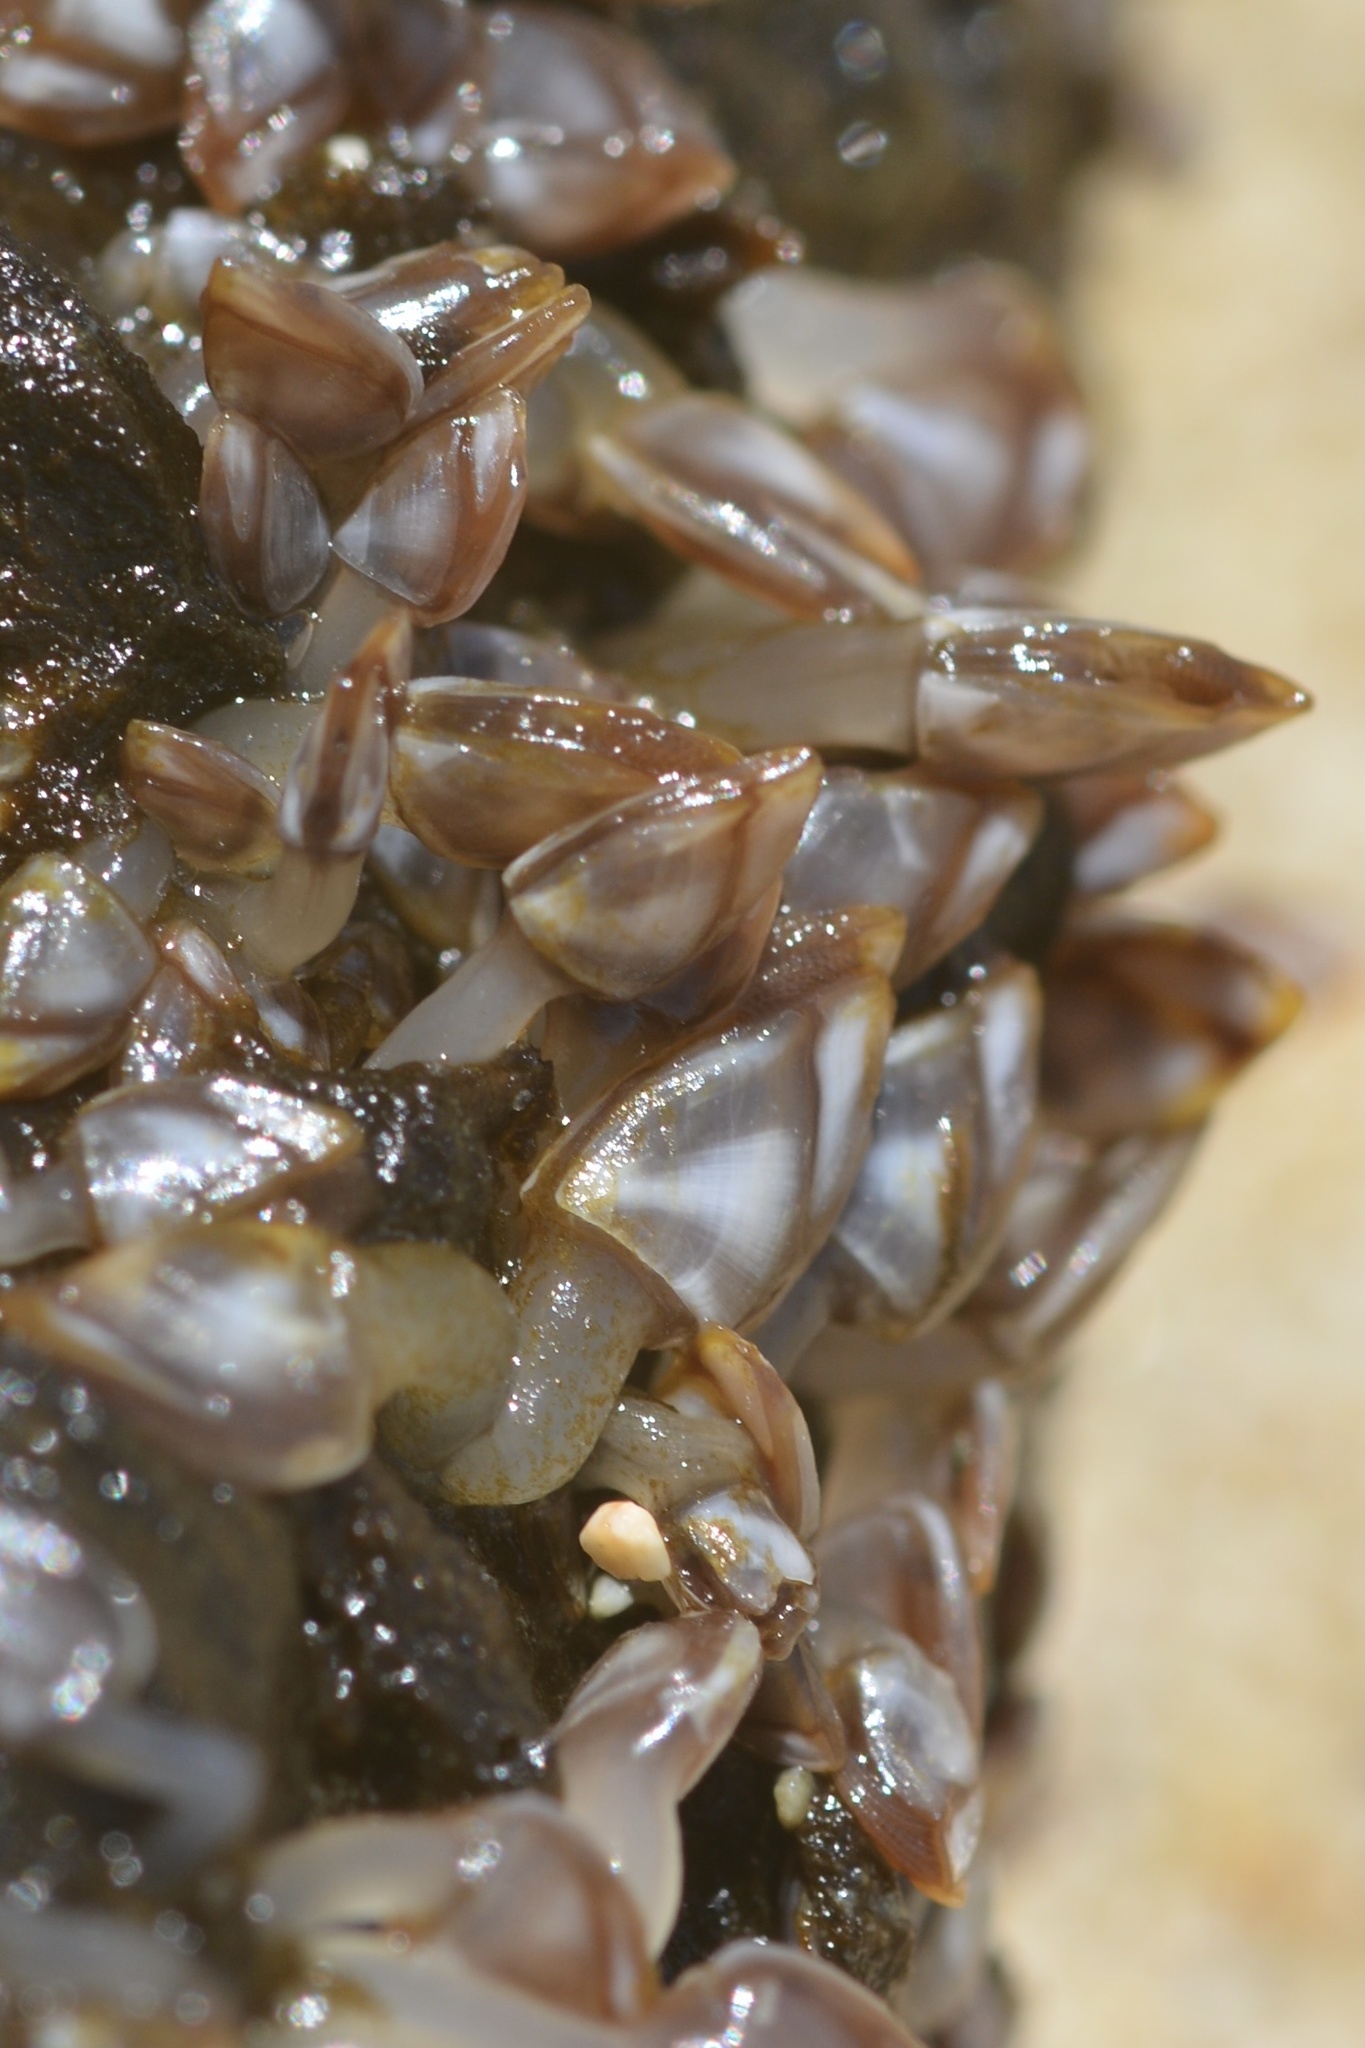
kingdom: Animalia
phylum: Arthropoda
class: Maxillopoda
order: Pedunculata
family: Lepadidae
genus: Lepas
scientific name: Lepas pacifica
